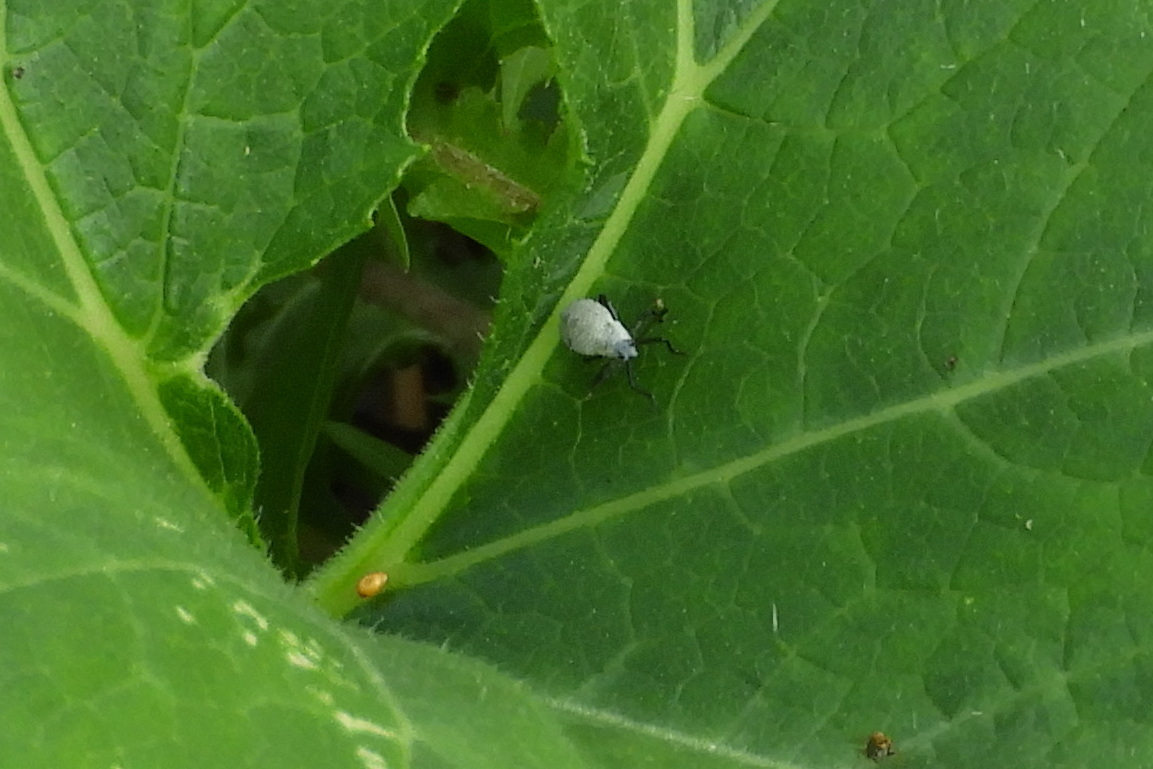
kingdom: Animalia
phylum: Arthropoda
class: Insecta
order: Hemiptera
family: Coreidae
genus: Anasa
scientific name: Anasa tristis
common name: Squash bug
